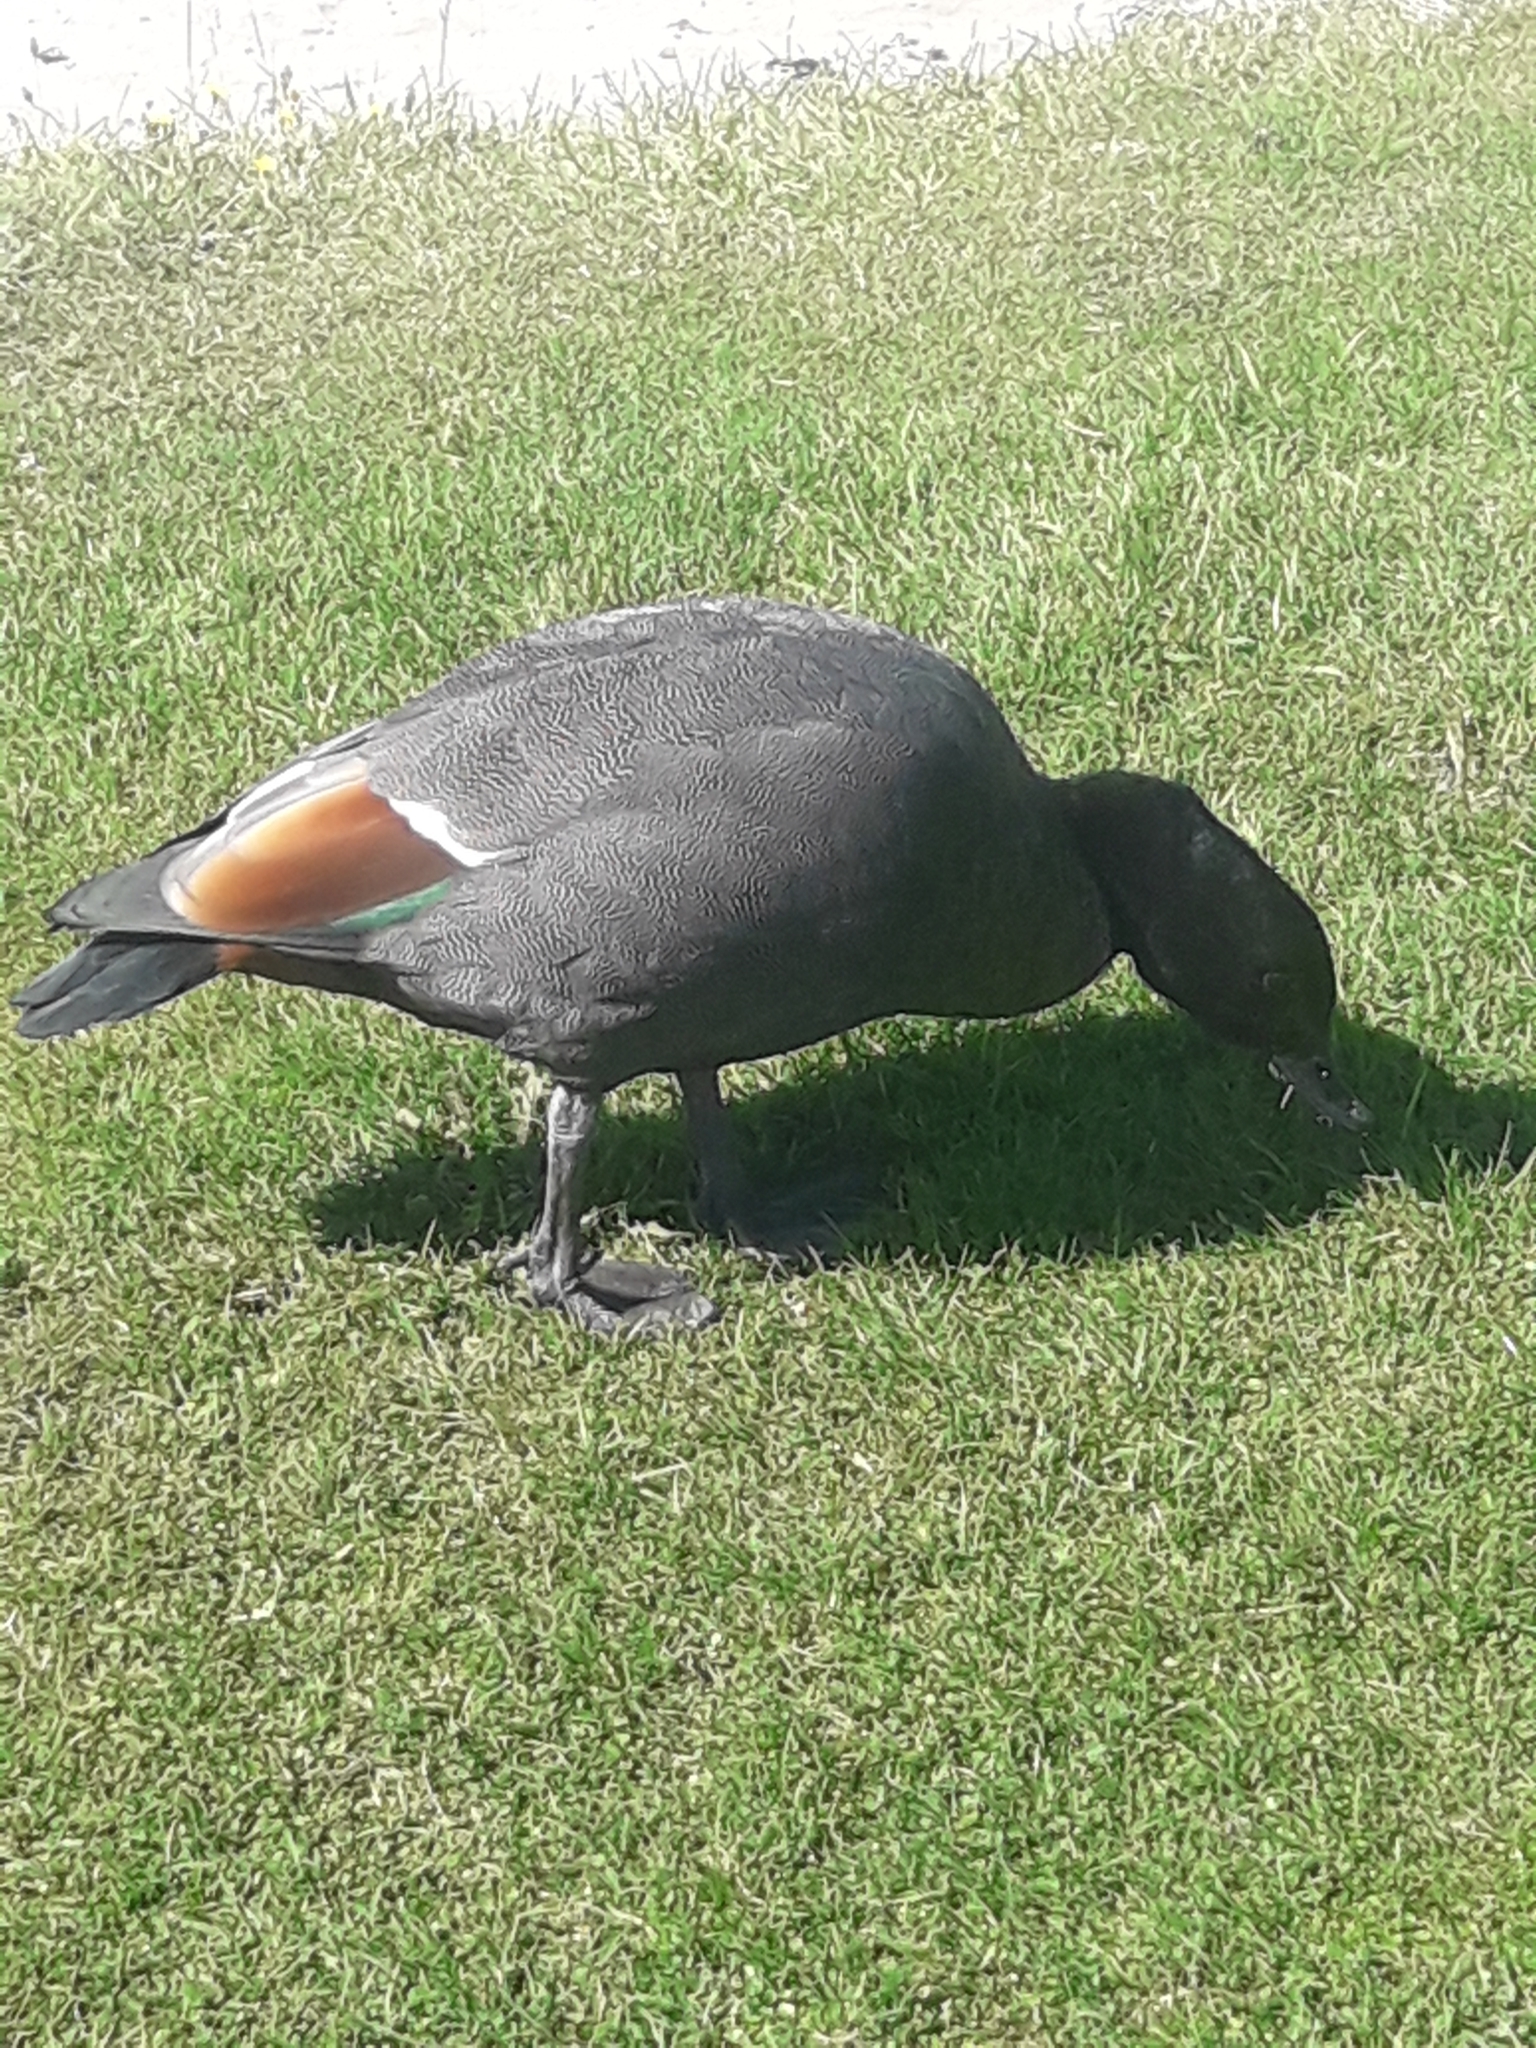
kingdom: Animalia
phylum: Chordata
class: Aves
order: Anseriformes
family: Anatidae
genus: Tadorna
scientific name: Tadorna variegata
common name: Paradise shelduck
